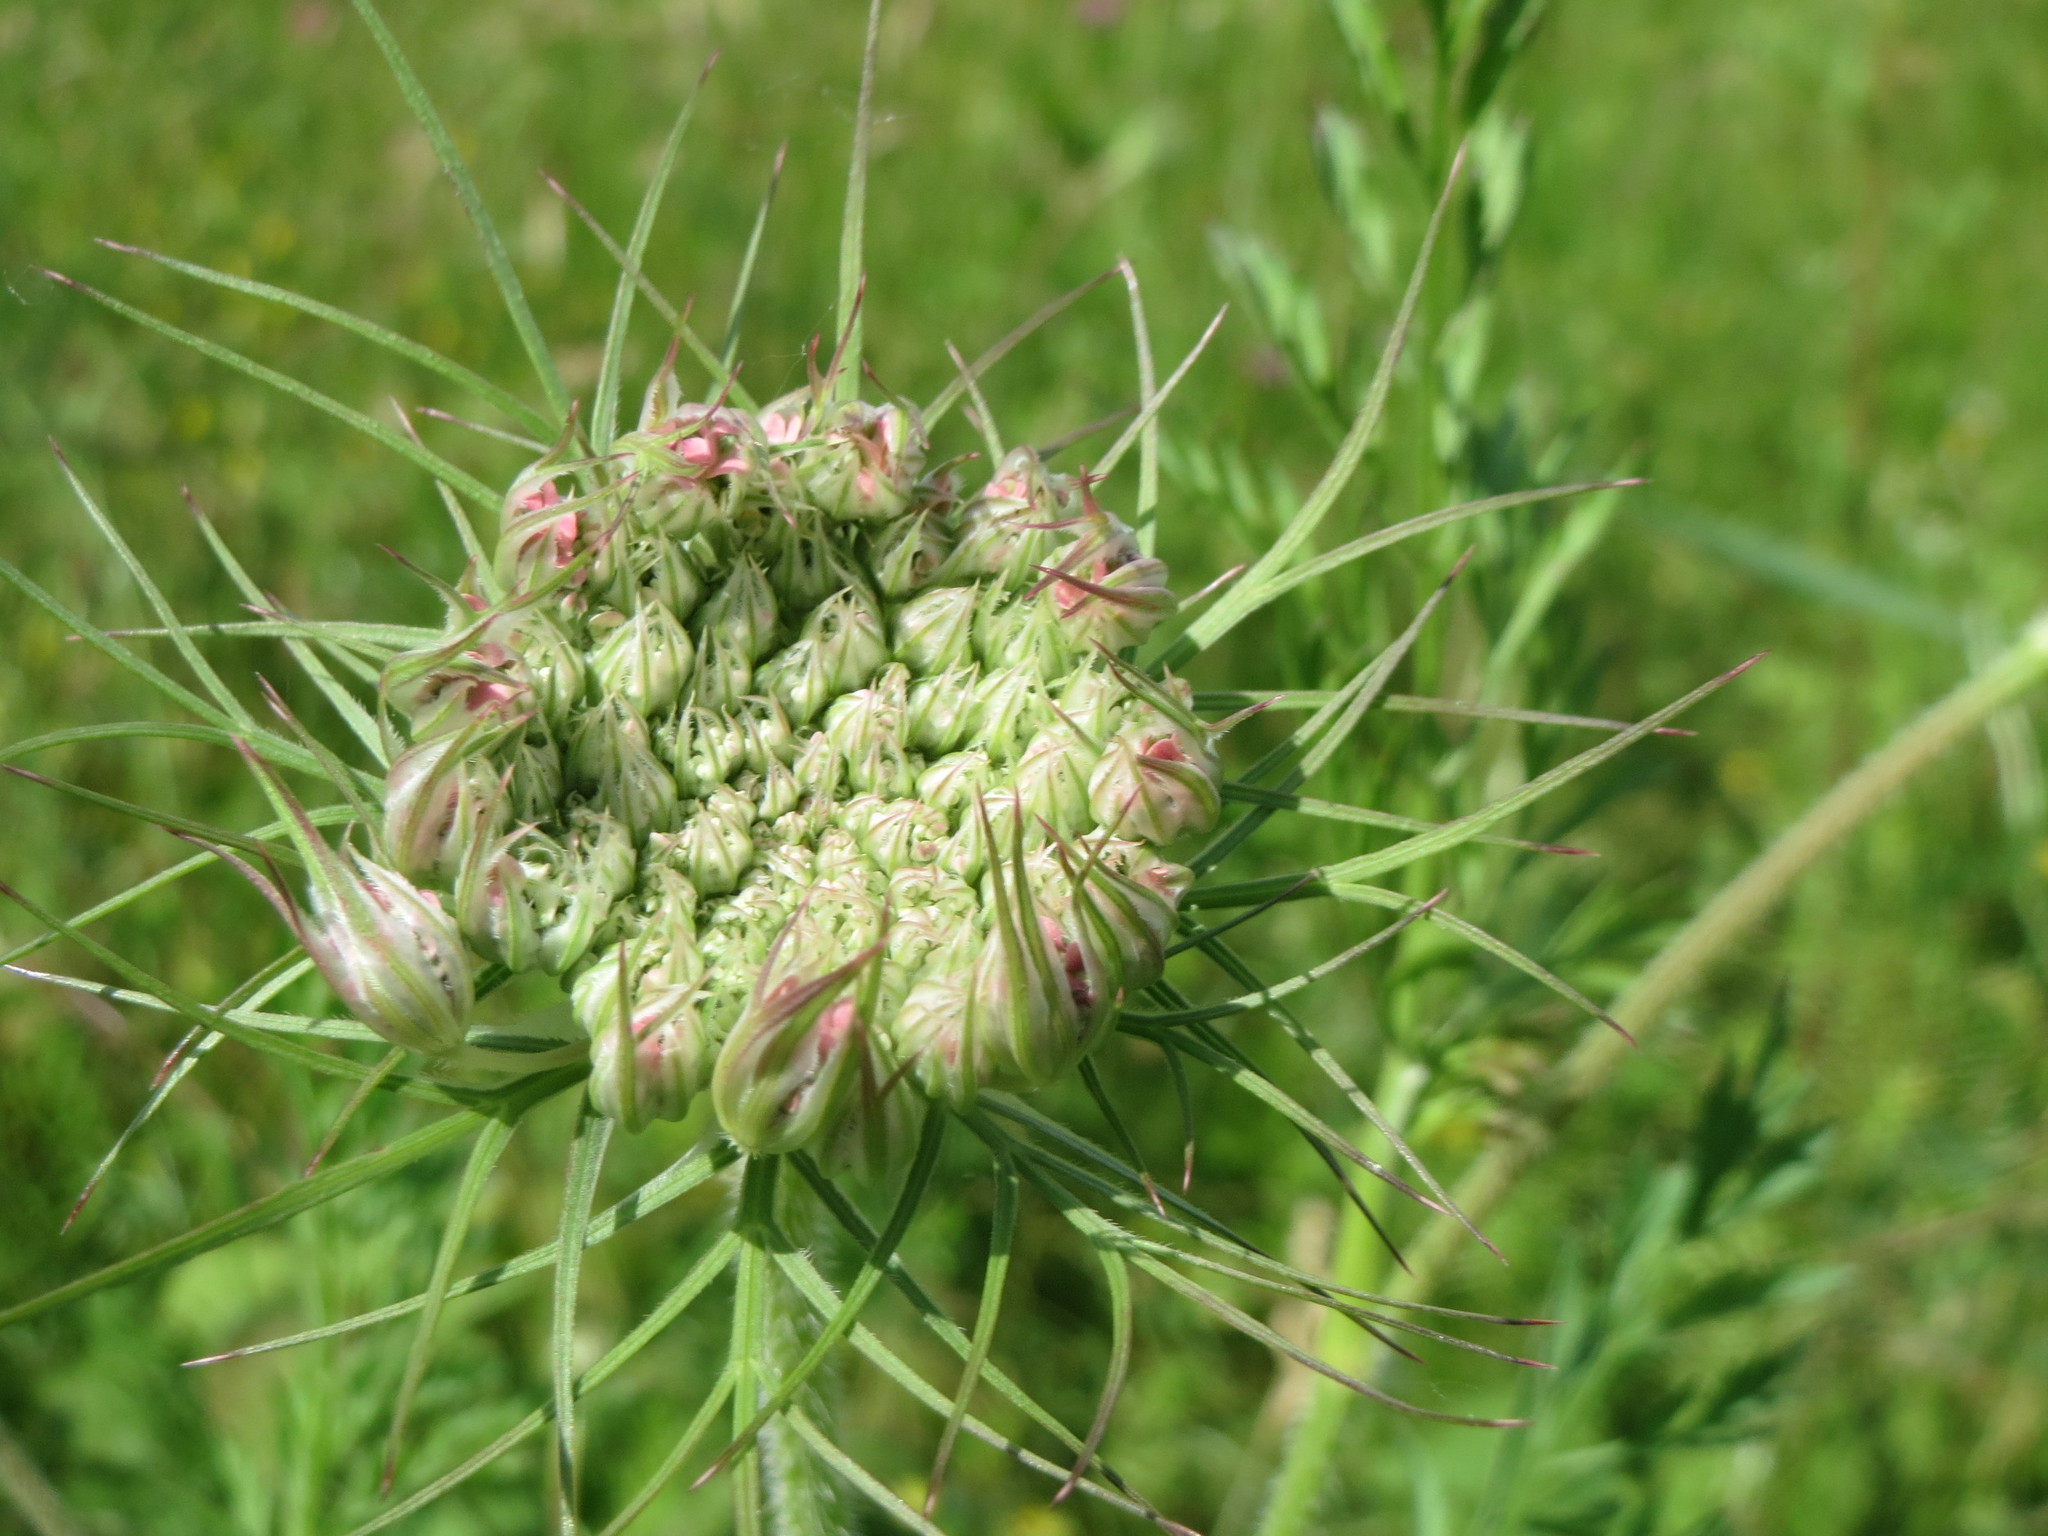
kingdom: Plantae
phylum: Tracheophyta
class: Magnoliopsida
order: Apiales
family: Apiaceae
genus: Daucus
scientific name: Daucus carota
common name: Wild carrot
